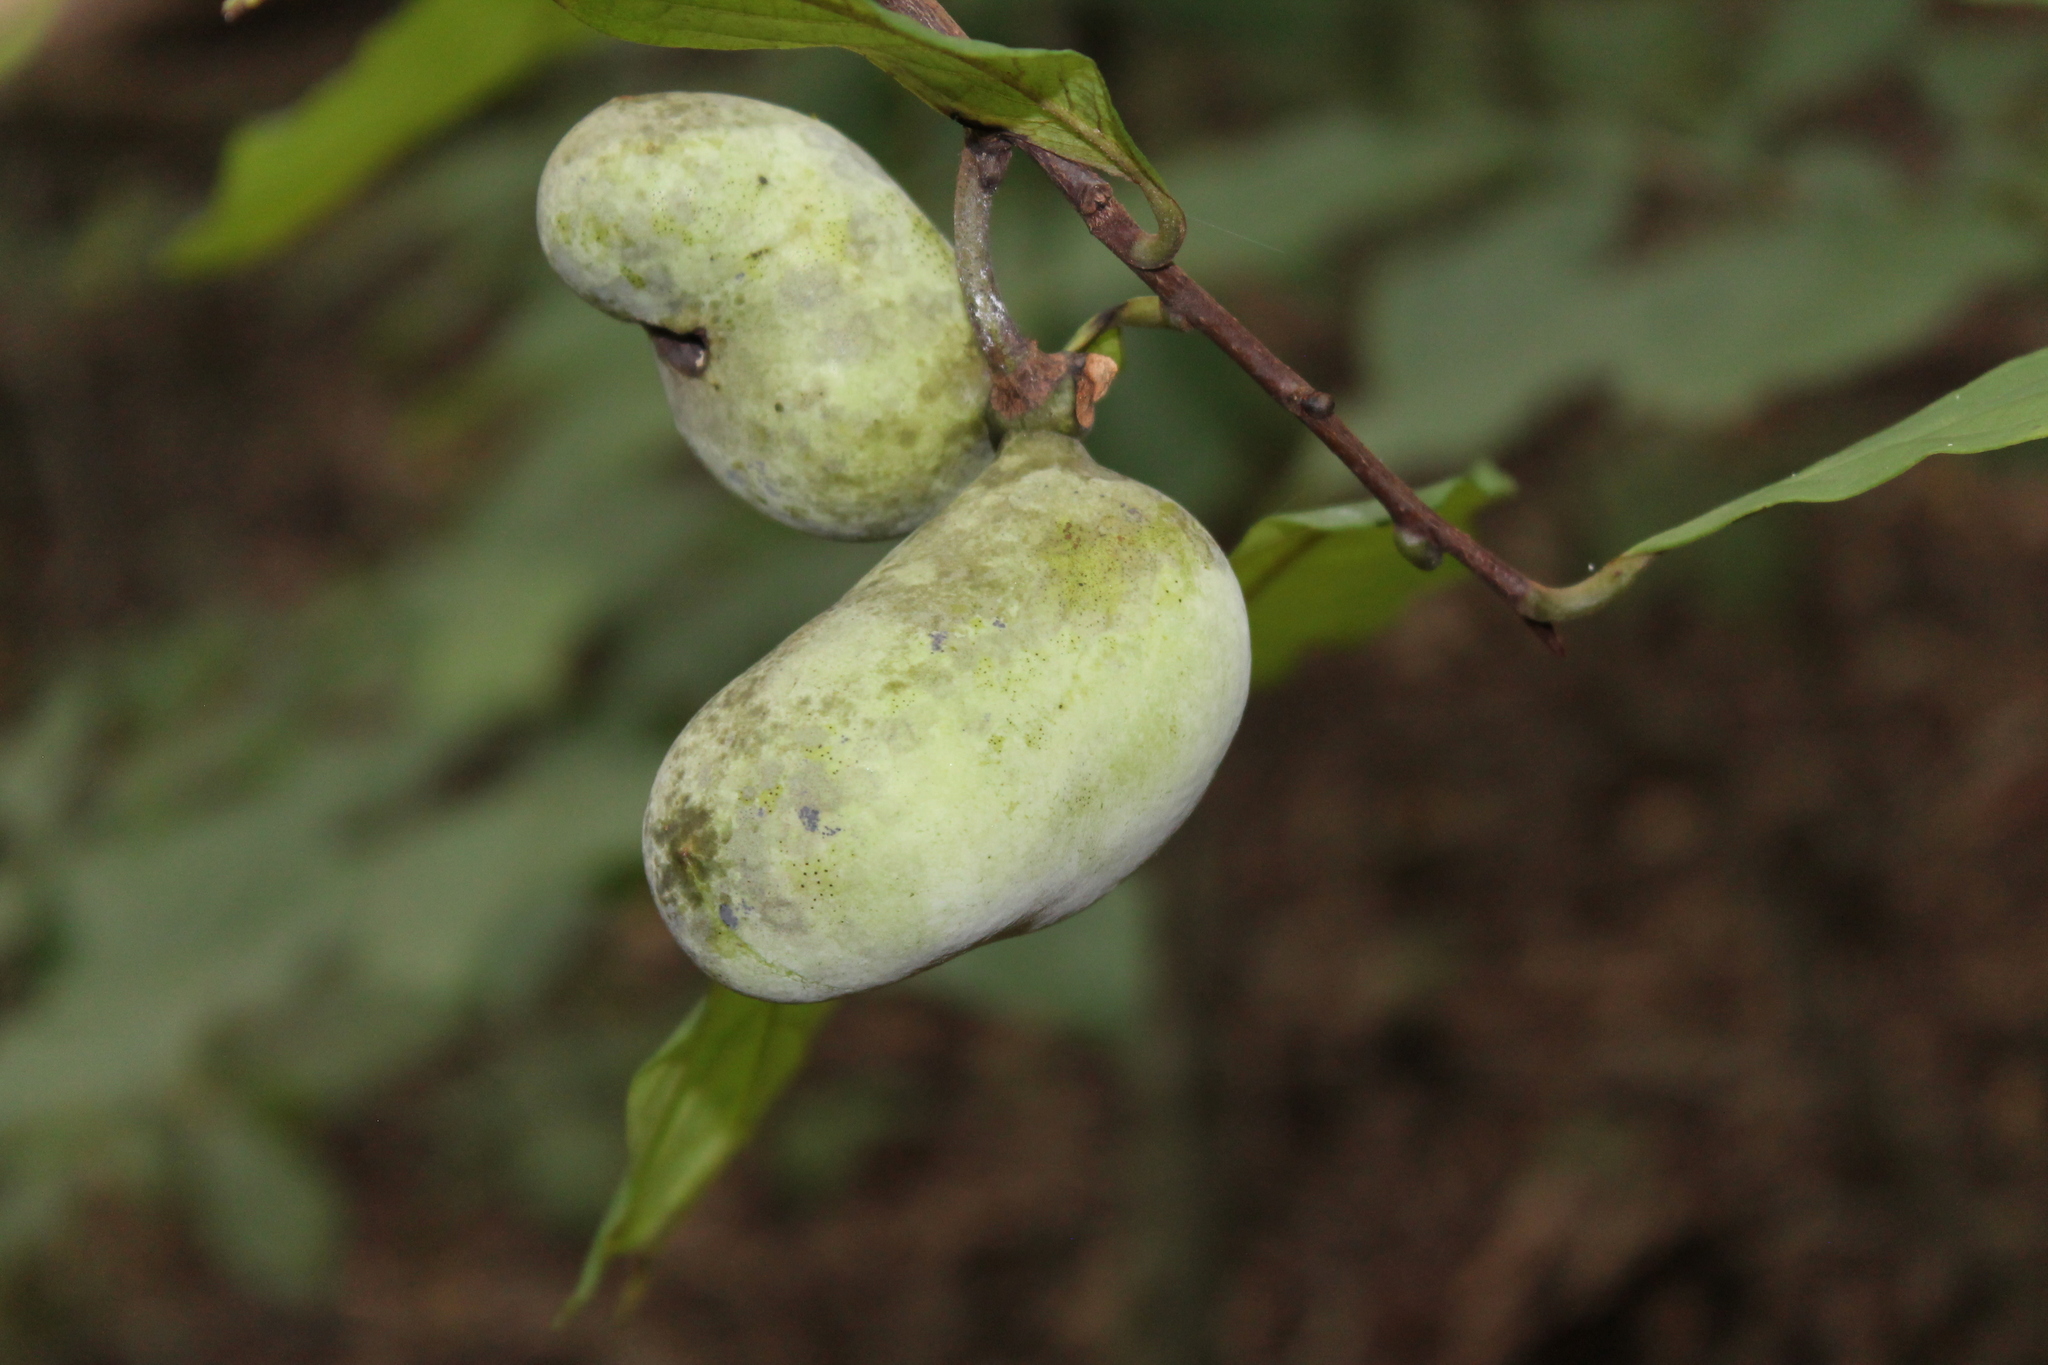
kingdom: Plantae
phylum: Tracheophyta
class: Magnoliopsida
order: Magnoliales
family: Annonaceae
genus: Asimina
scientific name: Asimina triloba
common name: Dog-banana
